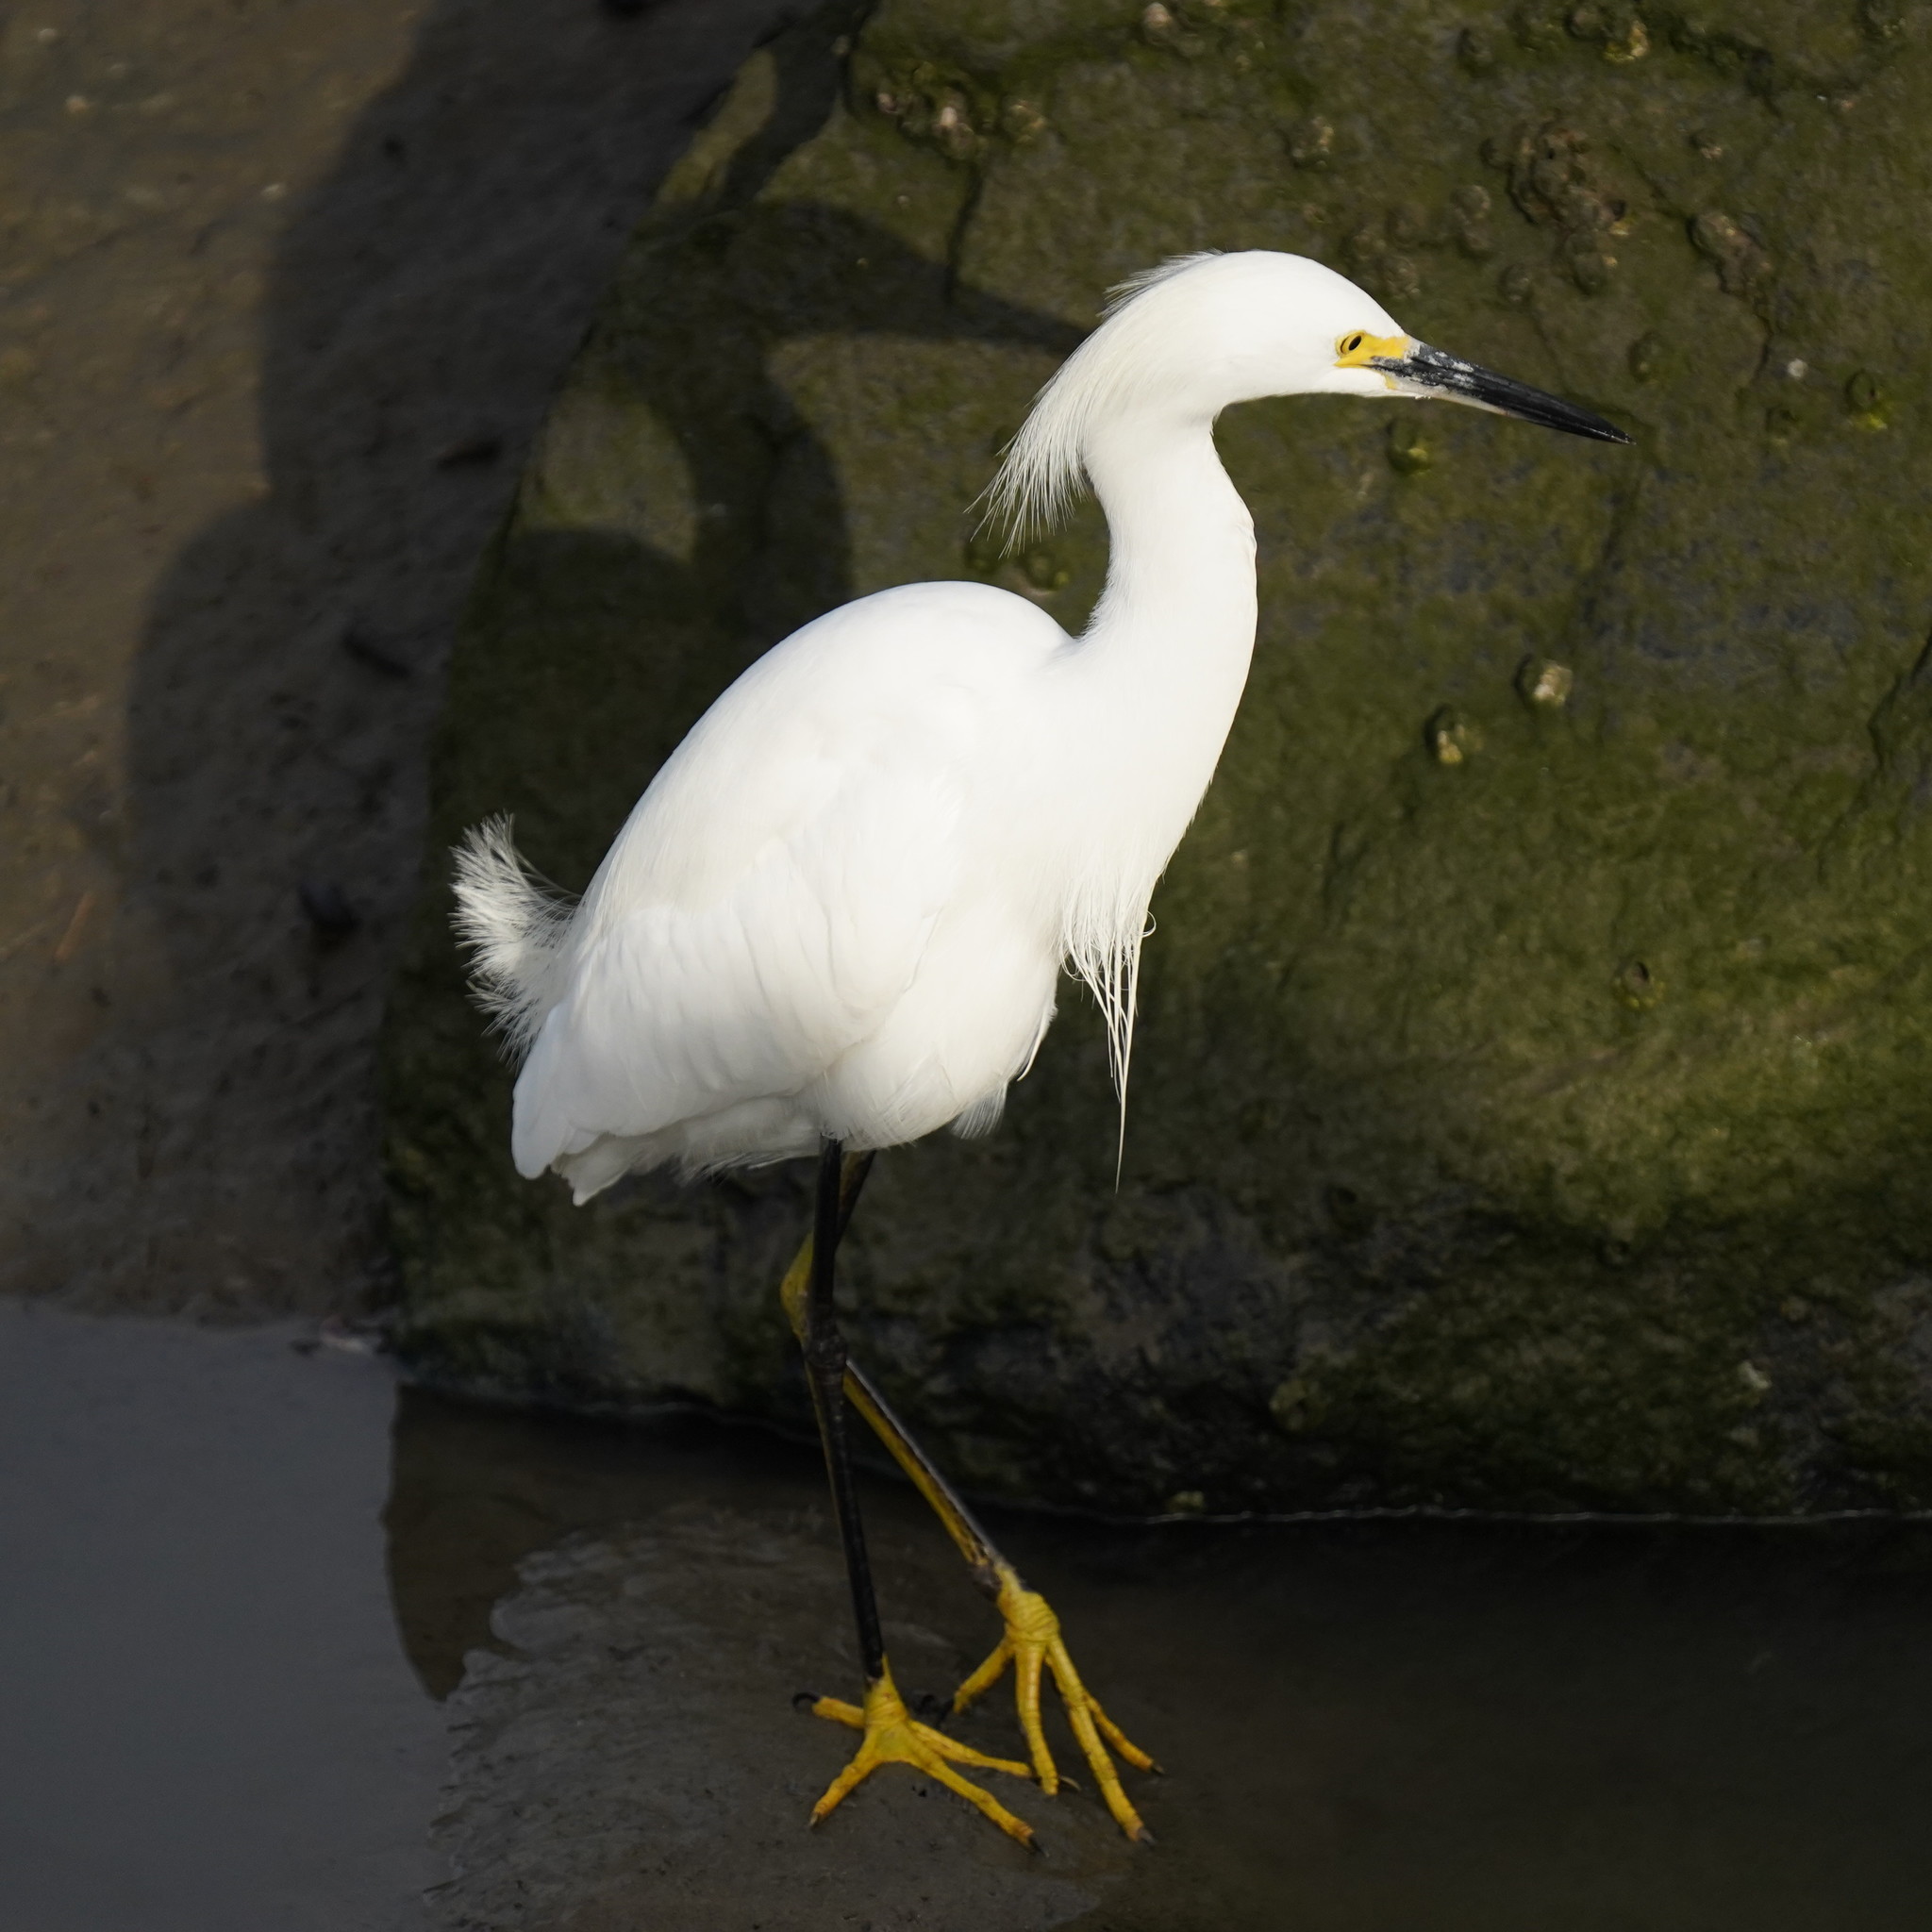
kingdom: Animalia
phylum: Chordata
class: Aves
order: Pelecaniformes
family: Ardeidae
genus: Egretta
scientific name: Egretta thula
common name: Snowy egret
